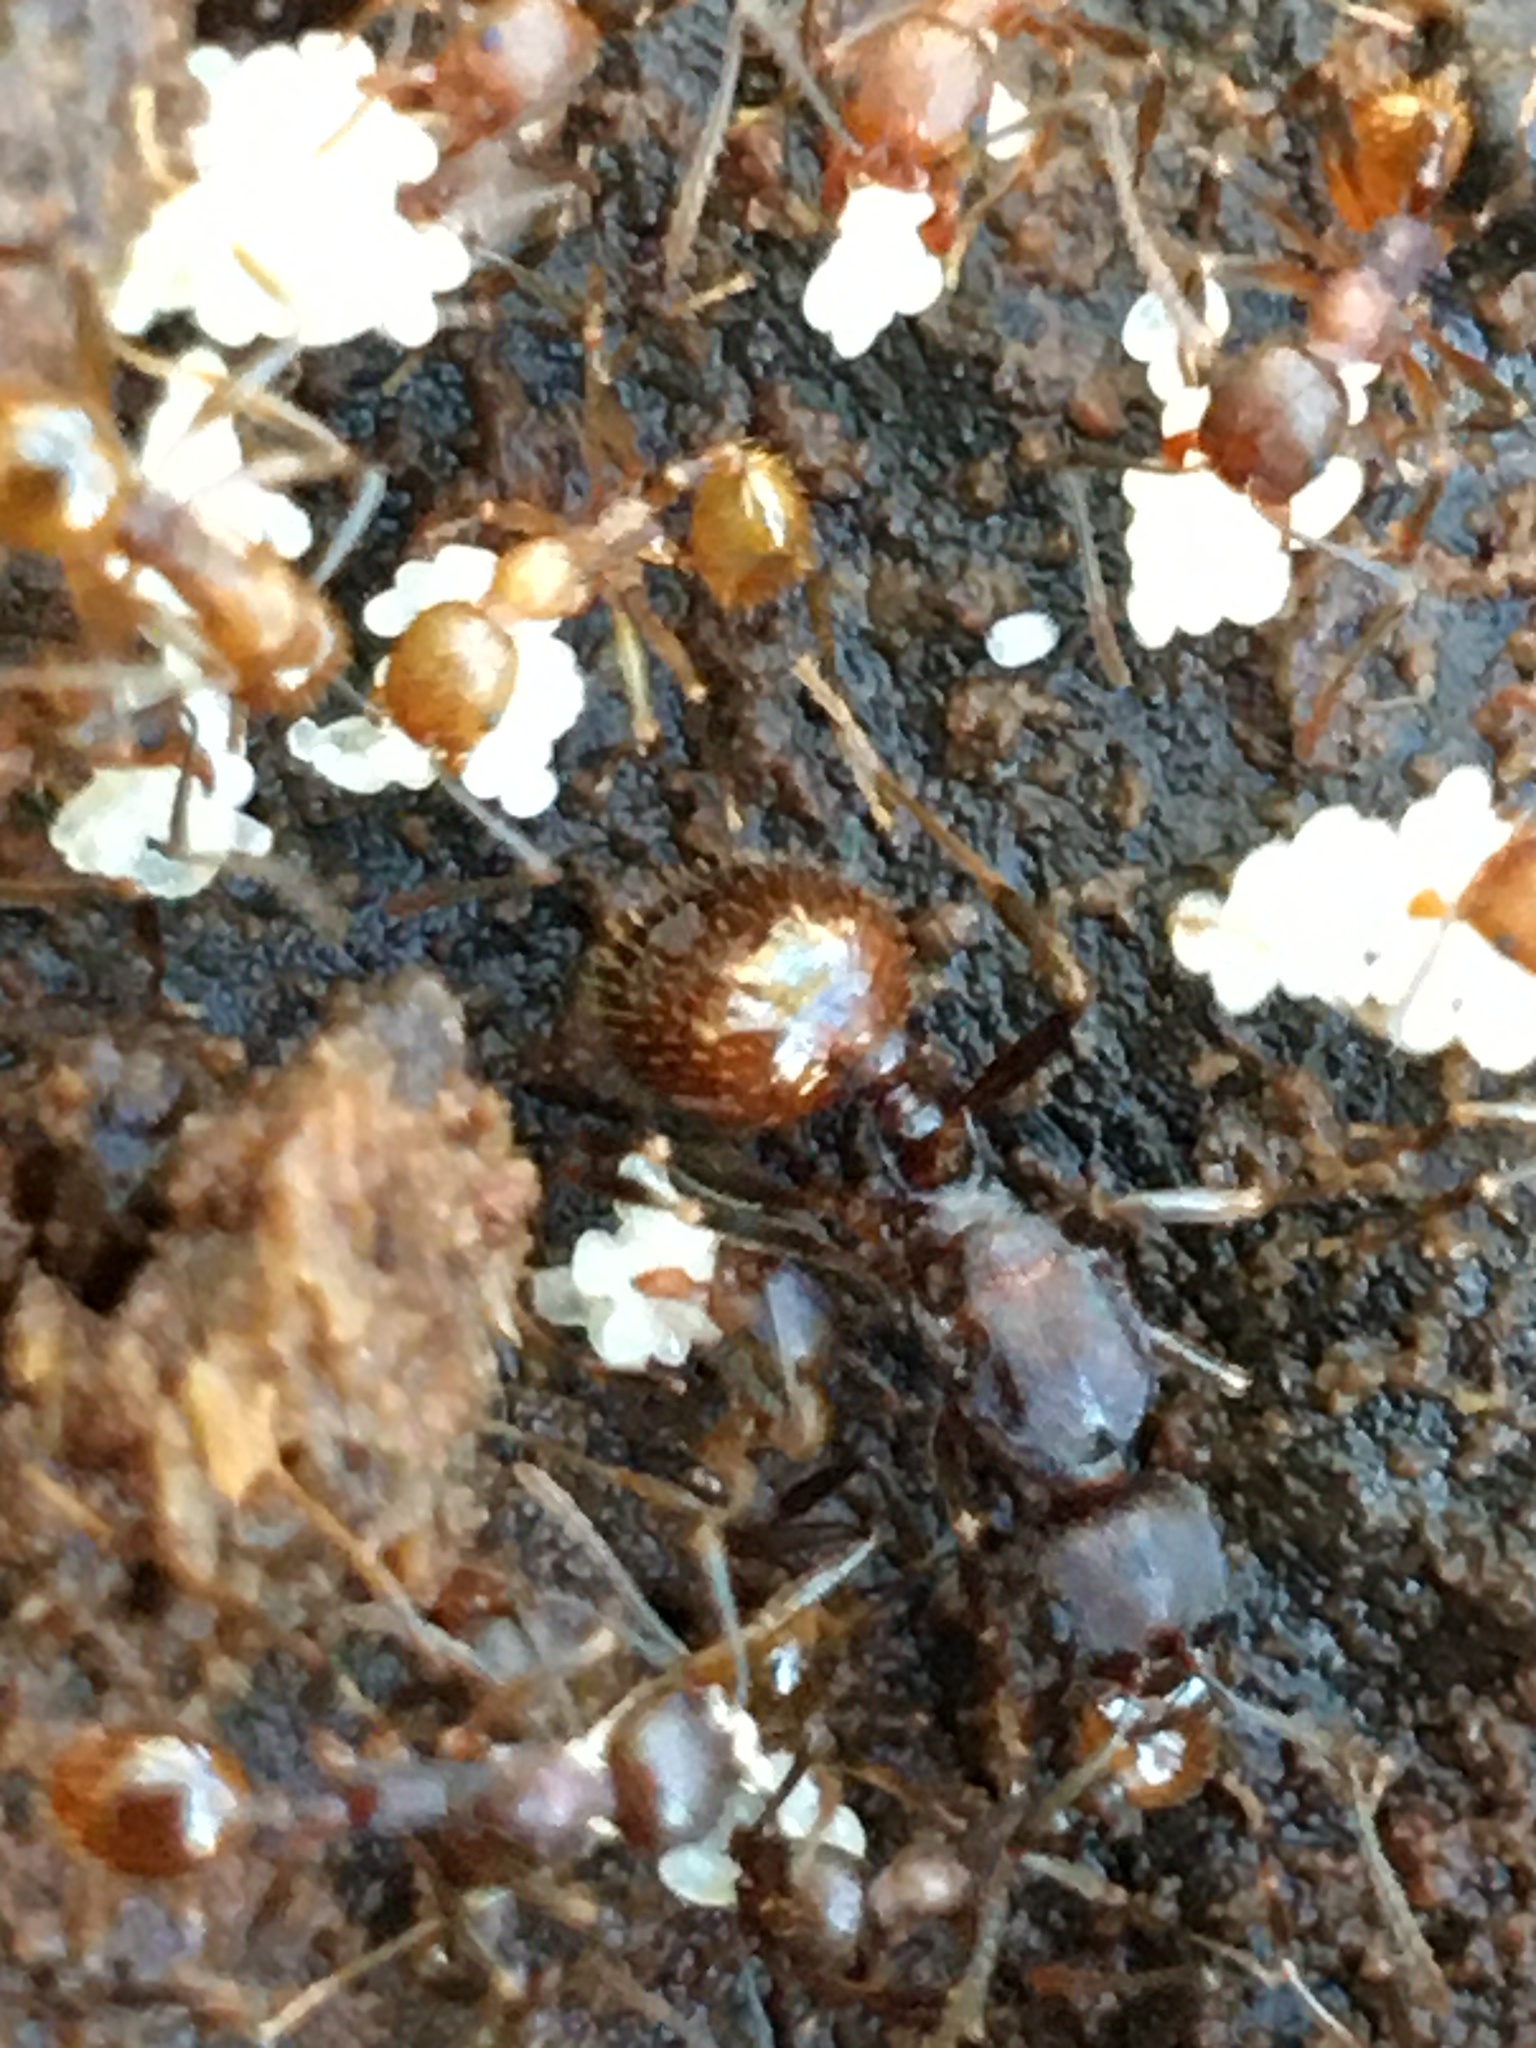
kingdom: Animalia
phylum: Arthropoda
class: Insecta
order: Hymenoptera
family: Formicidae
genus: Aphaenogaster
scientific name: Aphaenogaster fulva
